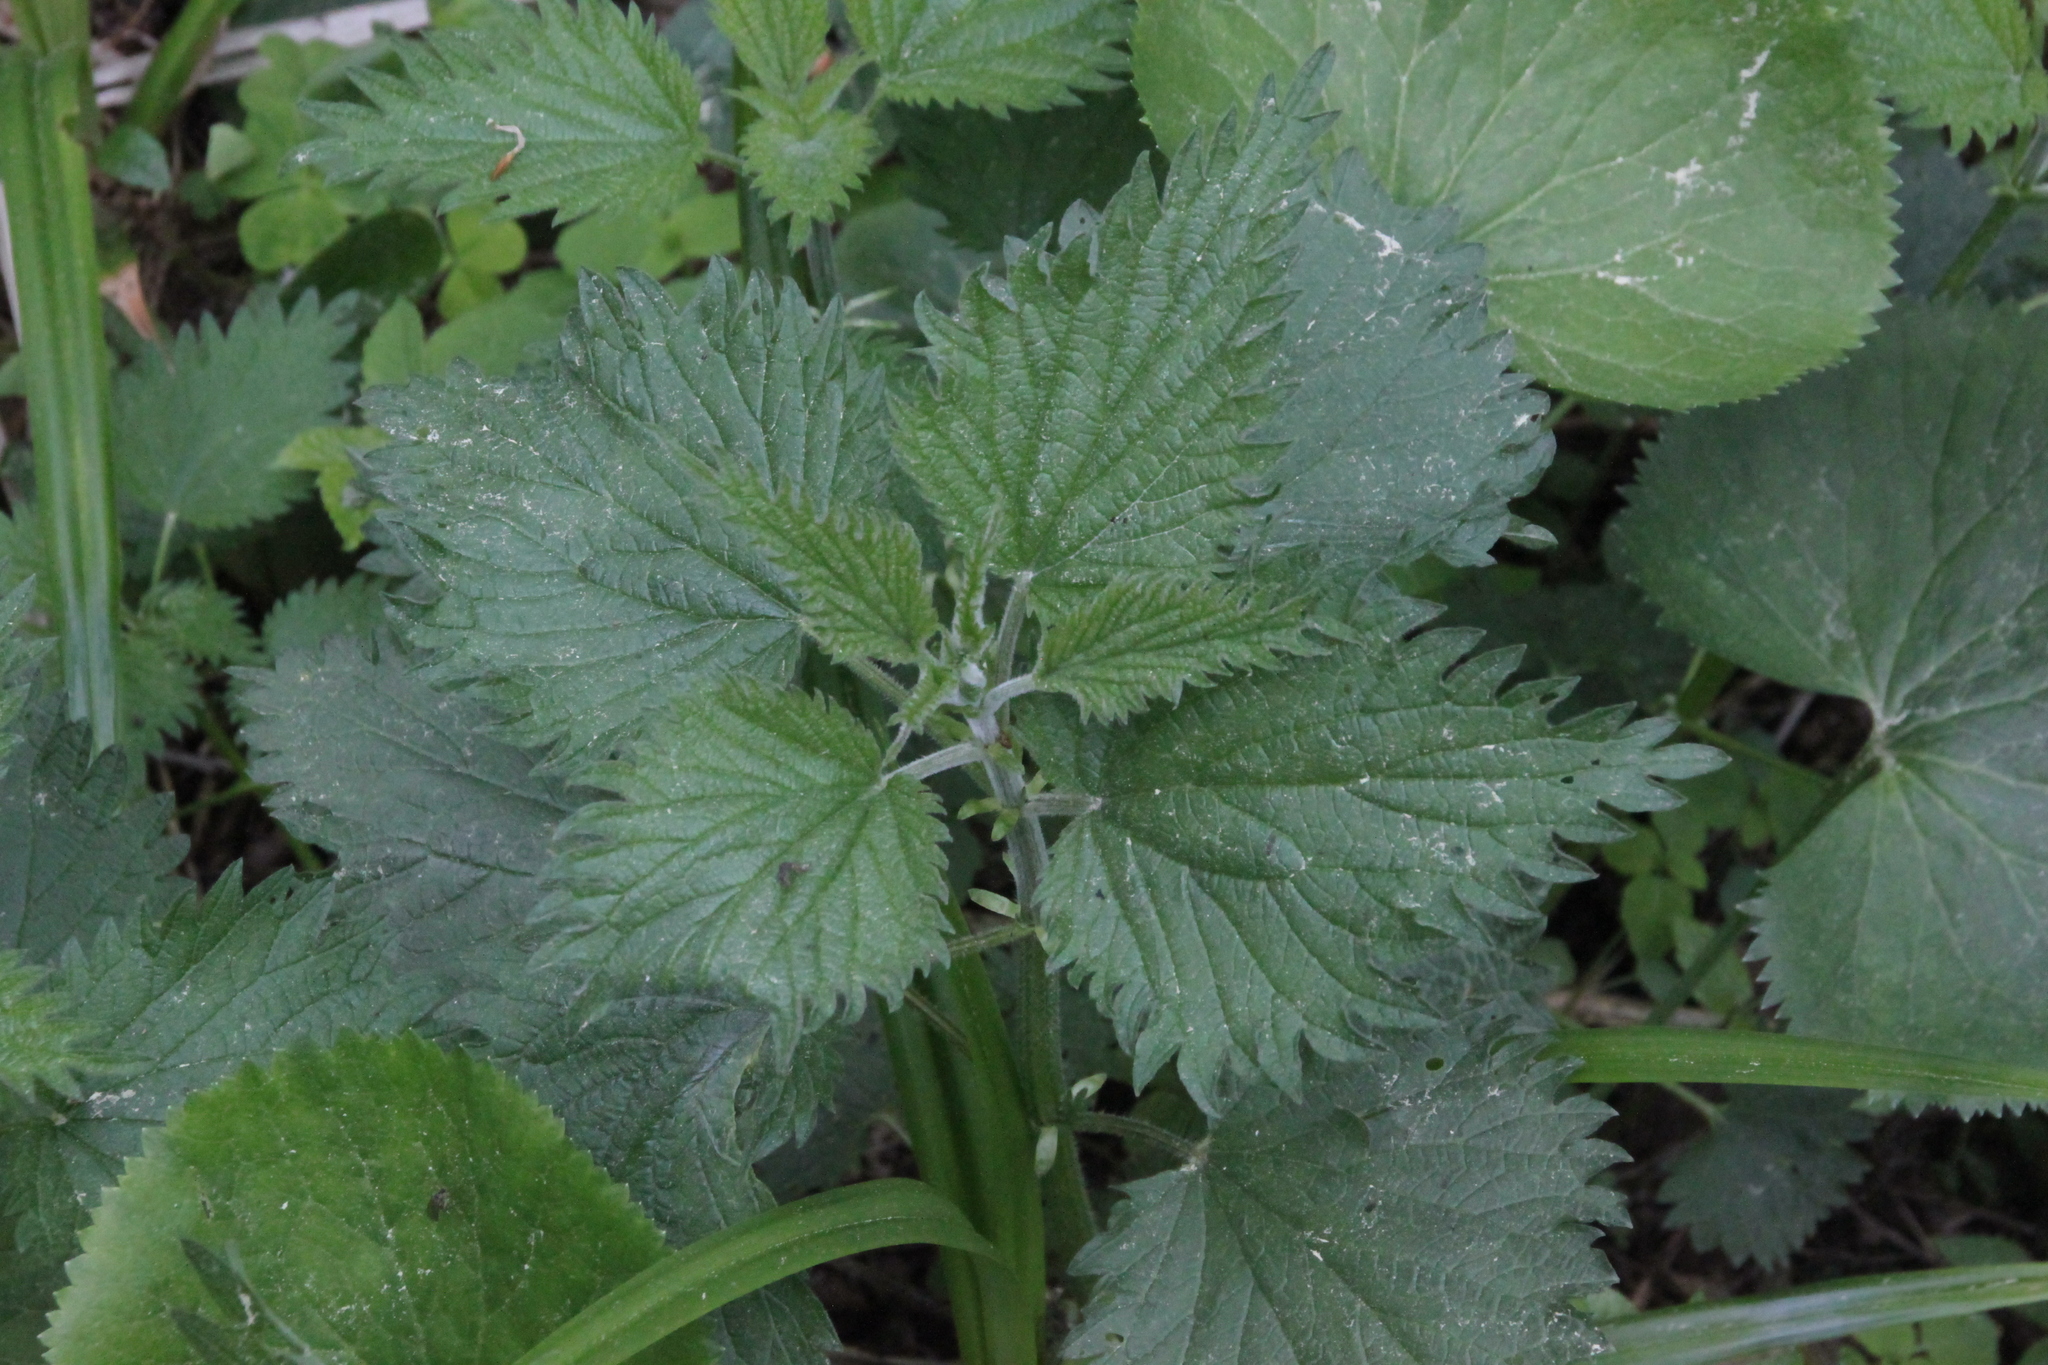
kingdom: Plantae
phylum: Tracheophyta
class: Magnoliopsida
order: Rosales
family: Urticaceae
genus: Urtica
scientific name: Urtica dioica
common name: Common nettle
